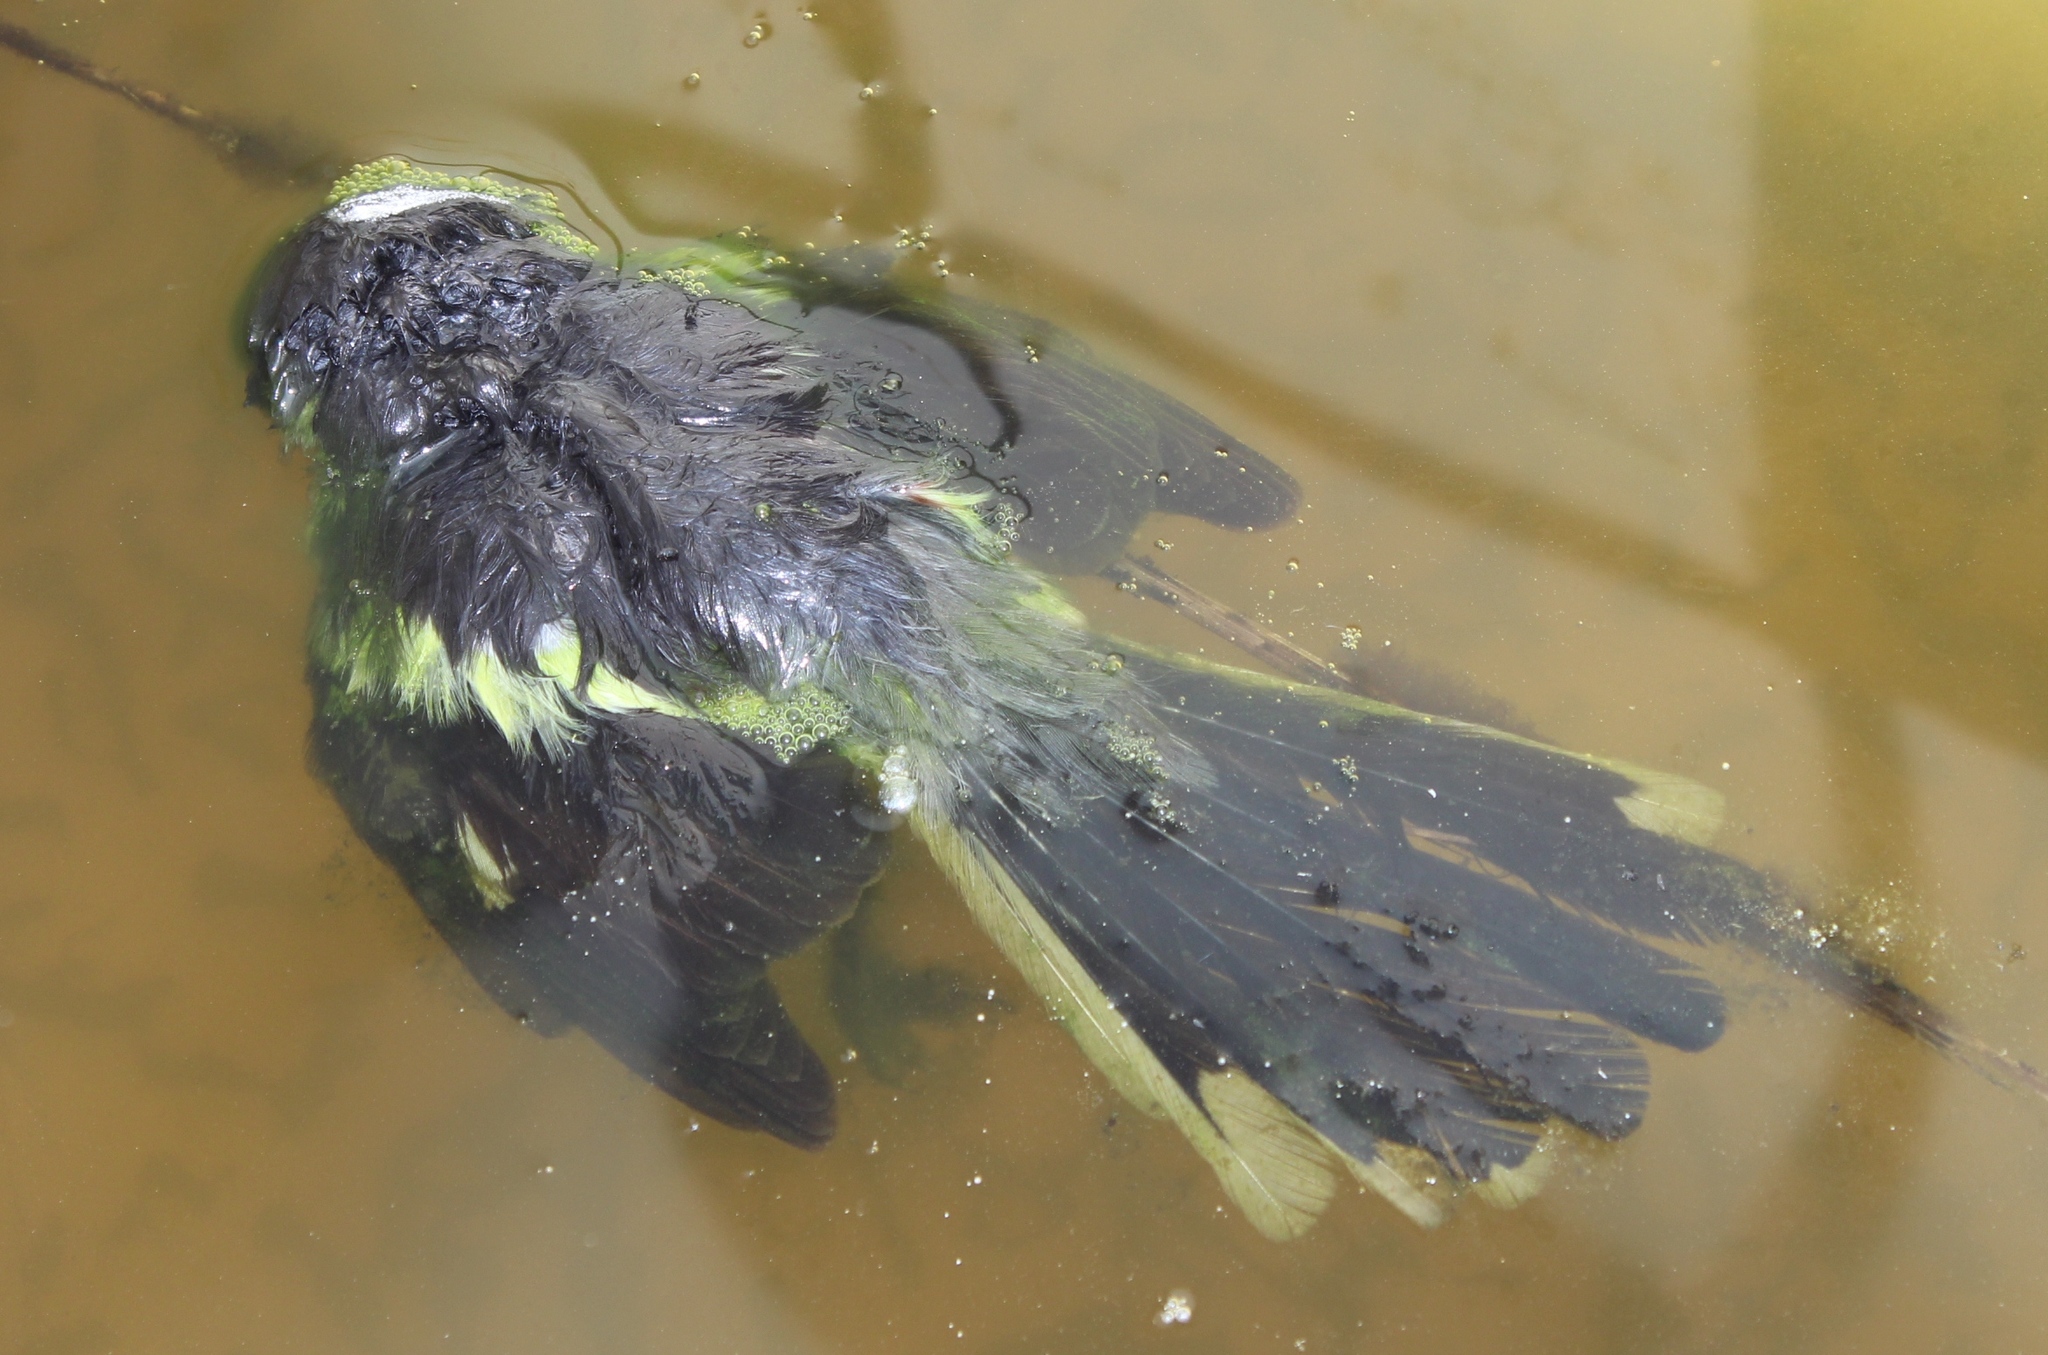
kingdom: Animalia
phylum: Chordata
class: Aves
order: Passeriformes
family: Laniidae
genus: Lanius
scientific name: Lanius collaris
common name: Southern fiscal
